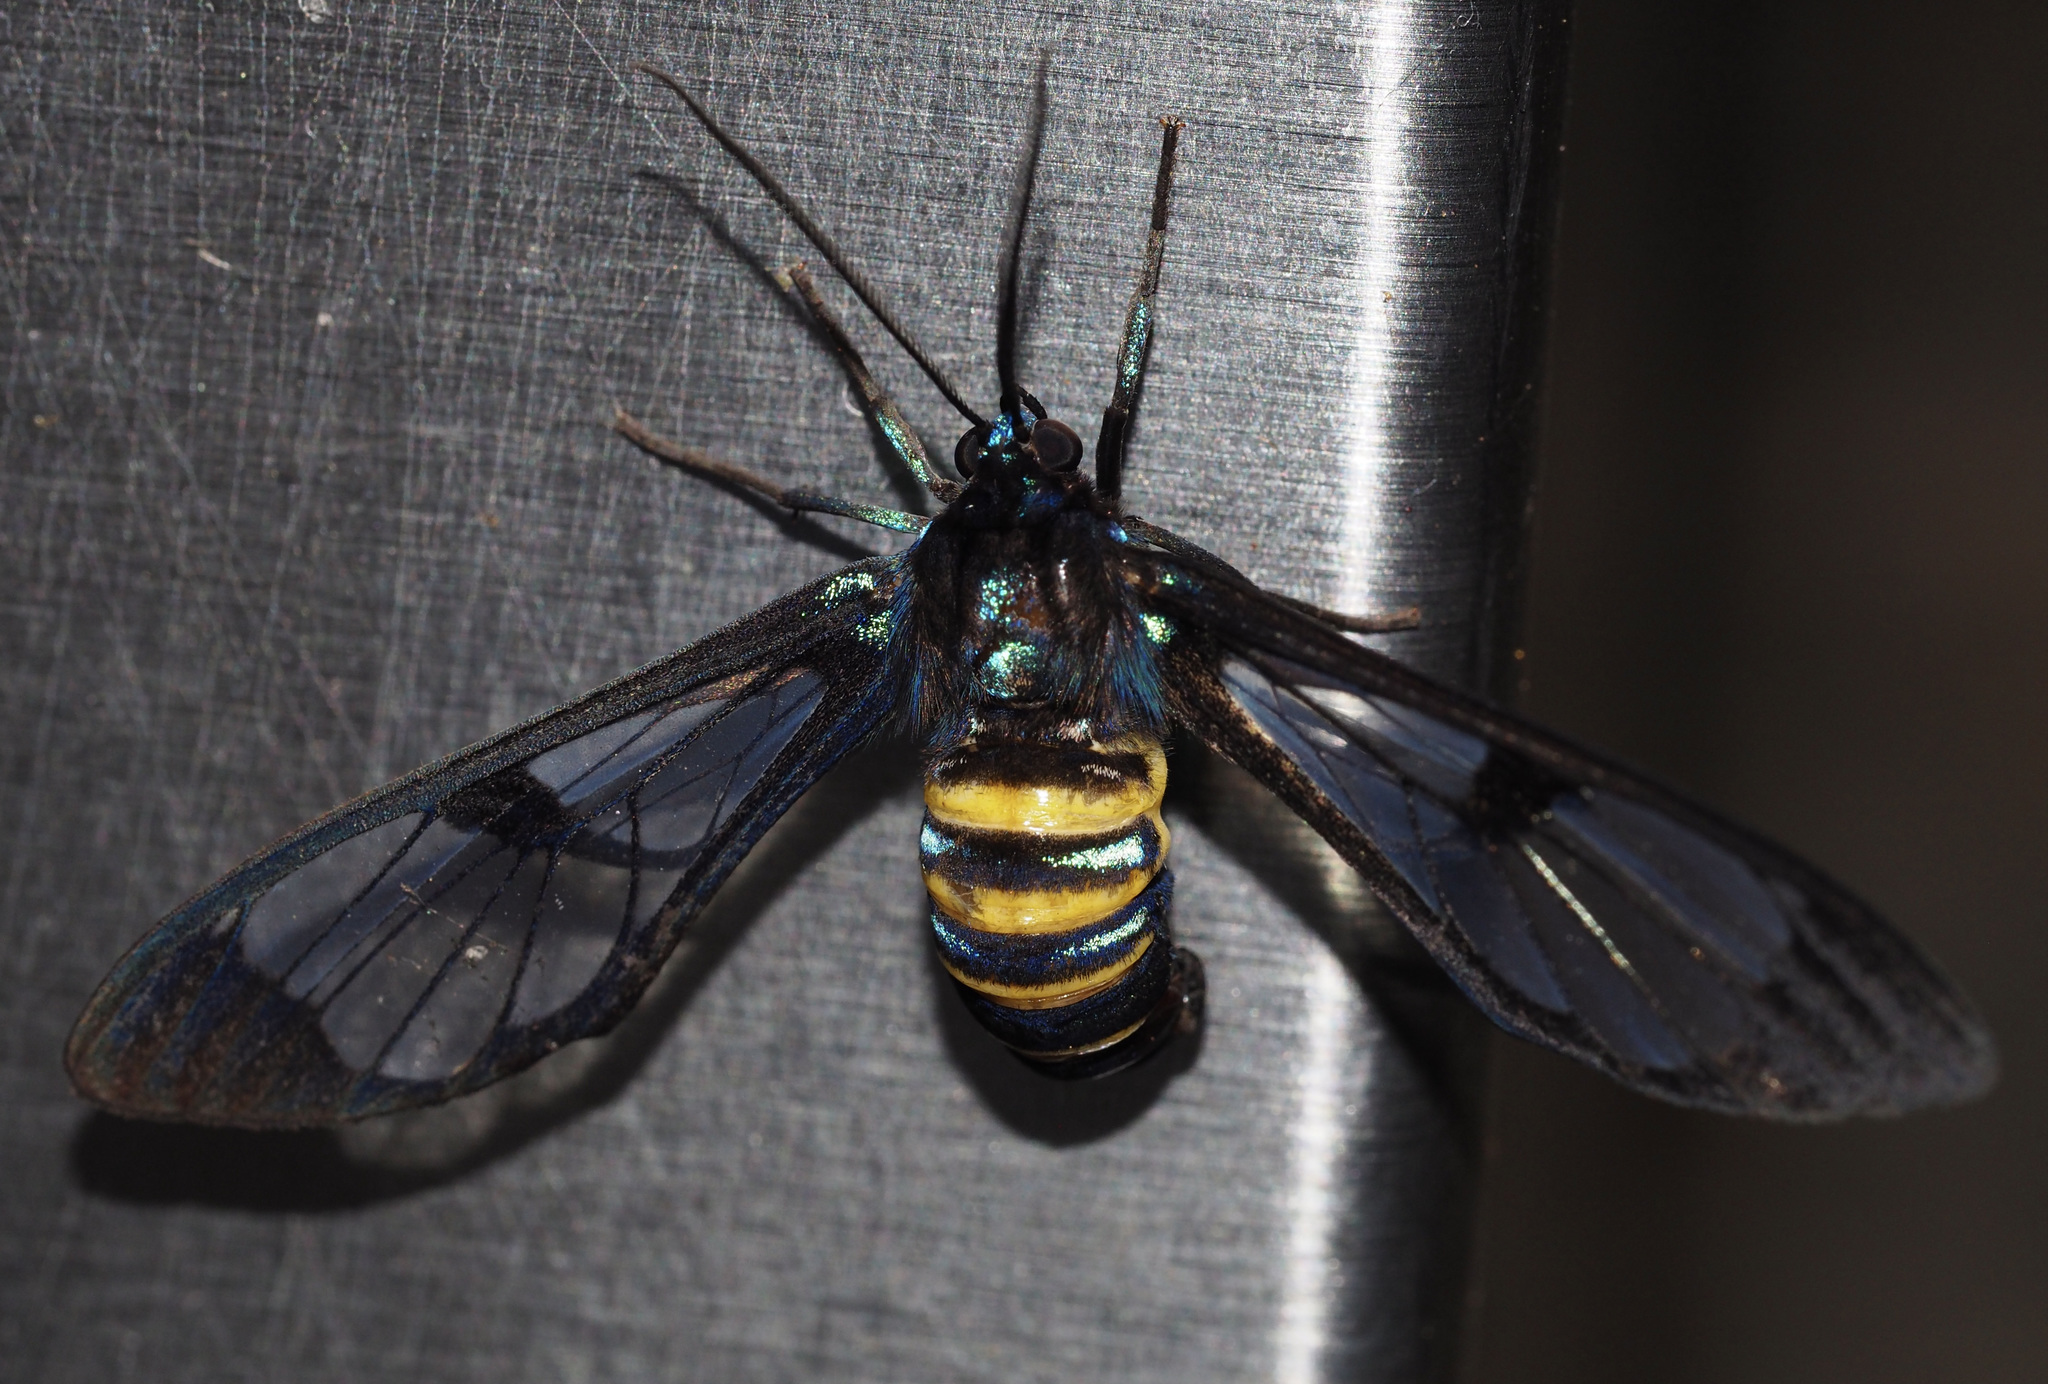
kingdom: Animalia
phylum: Arthropoda
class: Insecta
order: Lepidoptera
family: Erebidae
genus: Gymnelia
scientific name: Gymnelia nobilis
